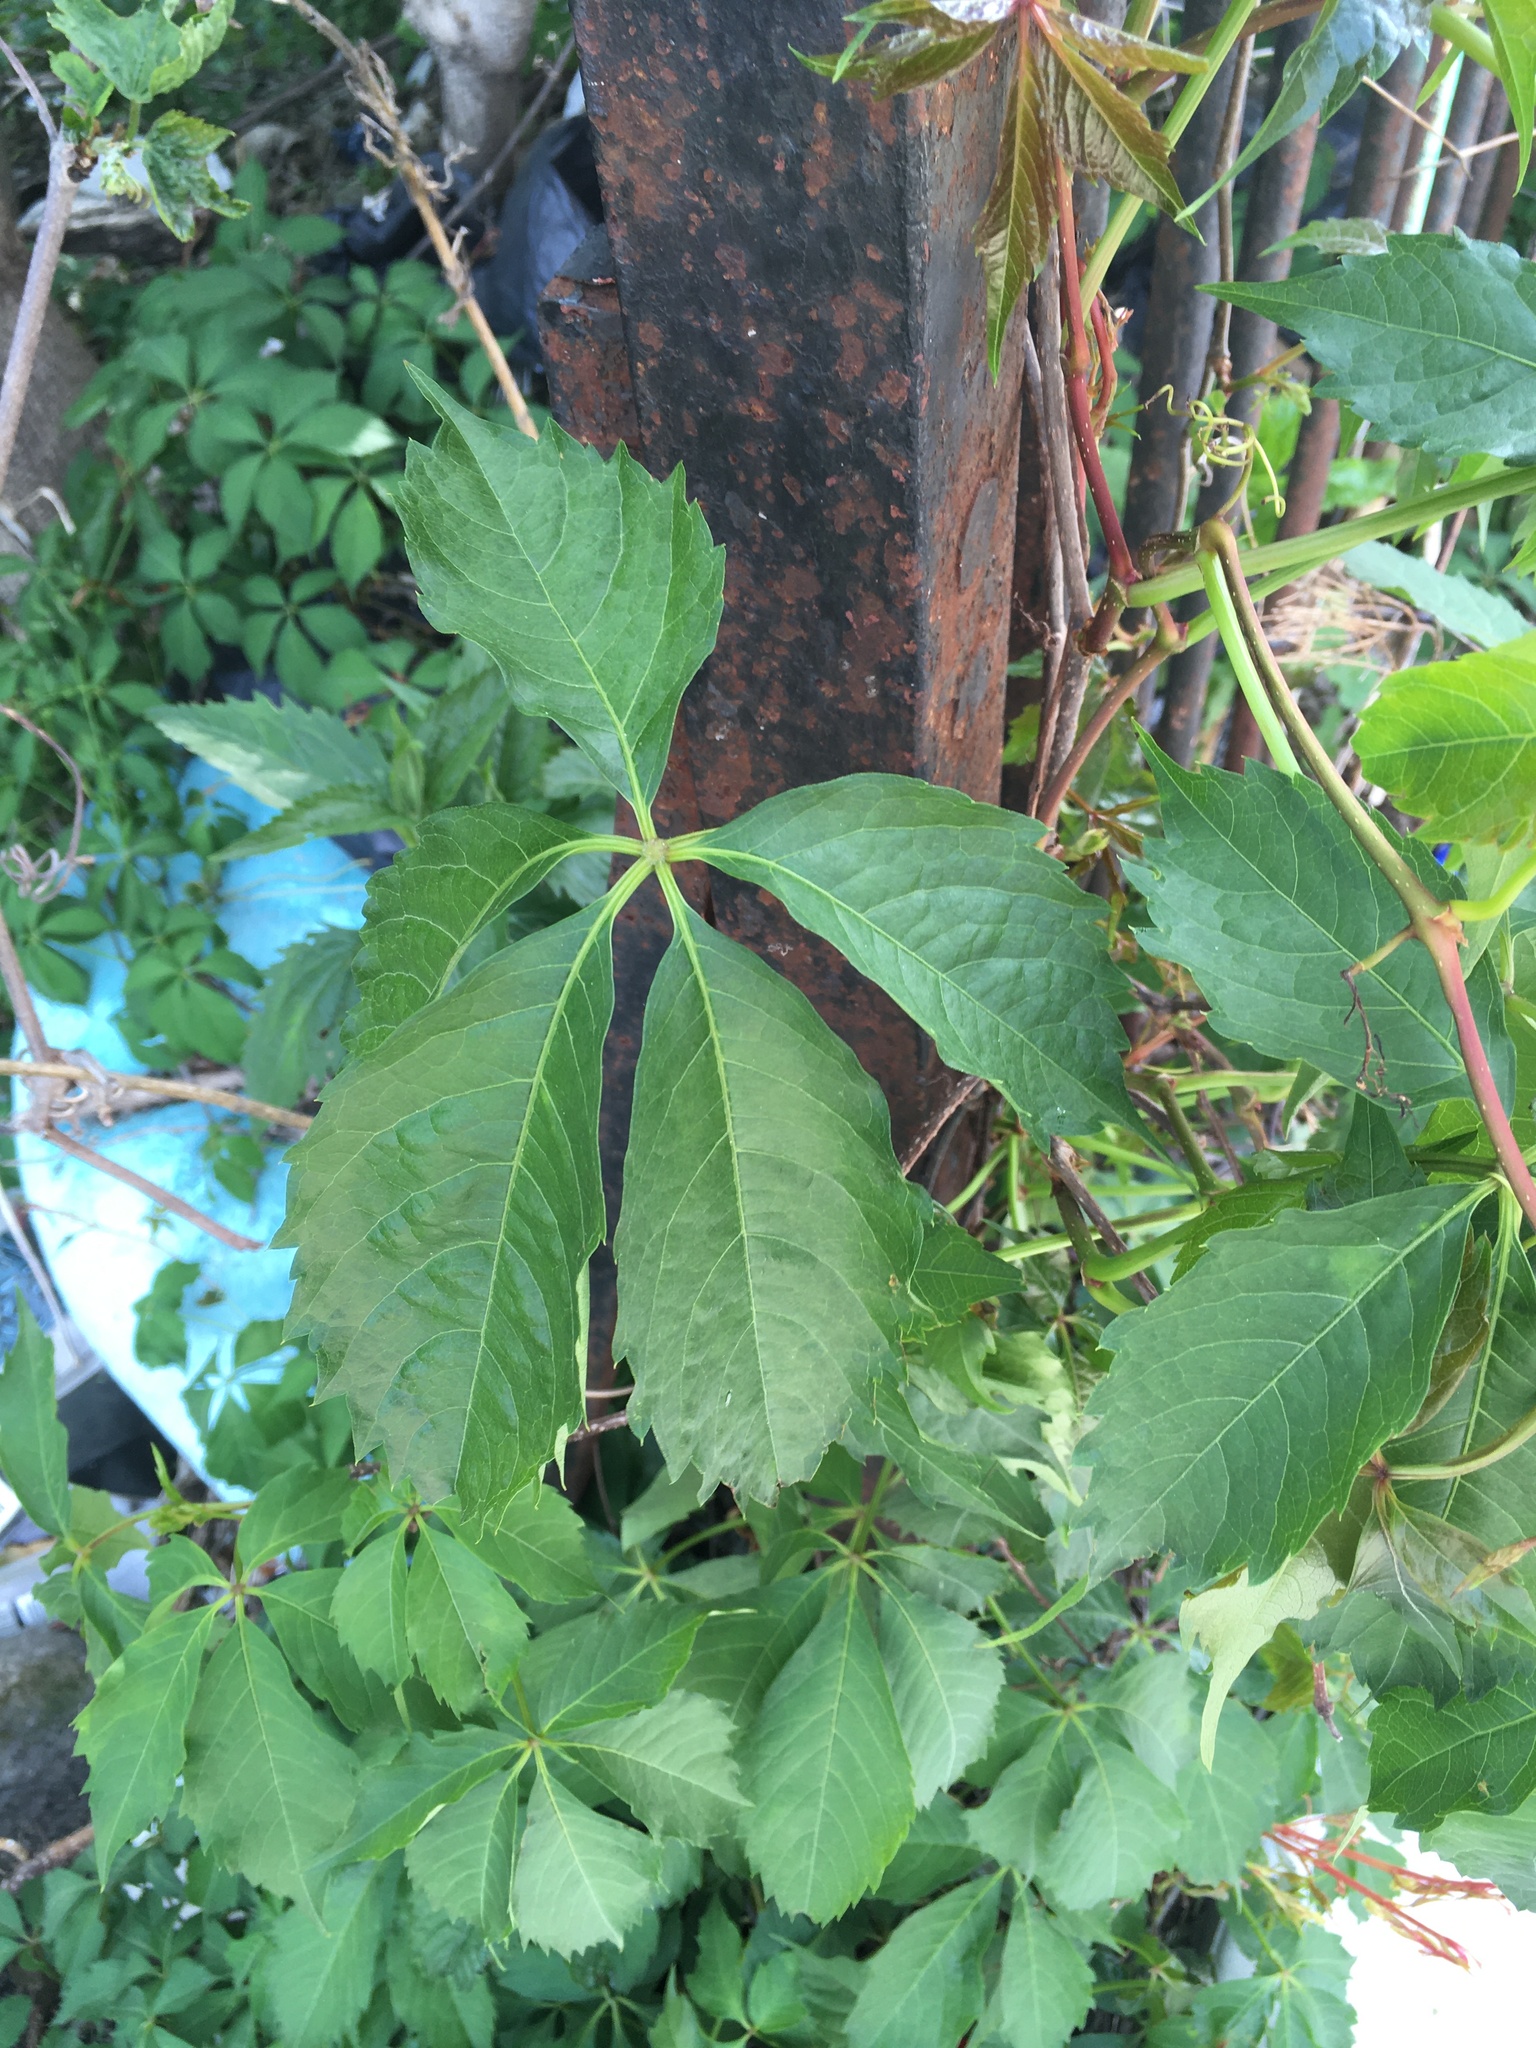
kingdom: Plantae
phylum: Tracheophyta
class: Magnoliopsida
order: Vitales
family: Vitaceae
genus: Parthenocissus
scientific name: Parthenocissus quinquefolia
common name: Virginia-creeper
